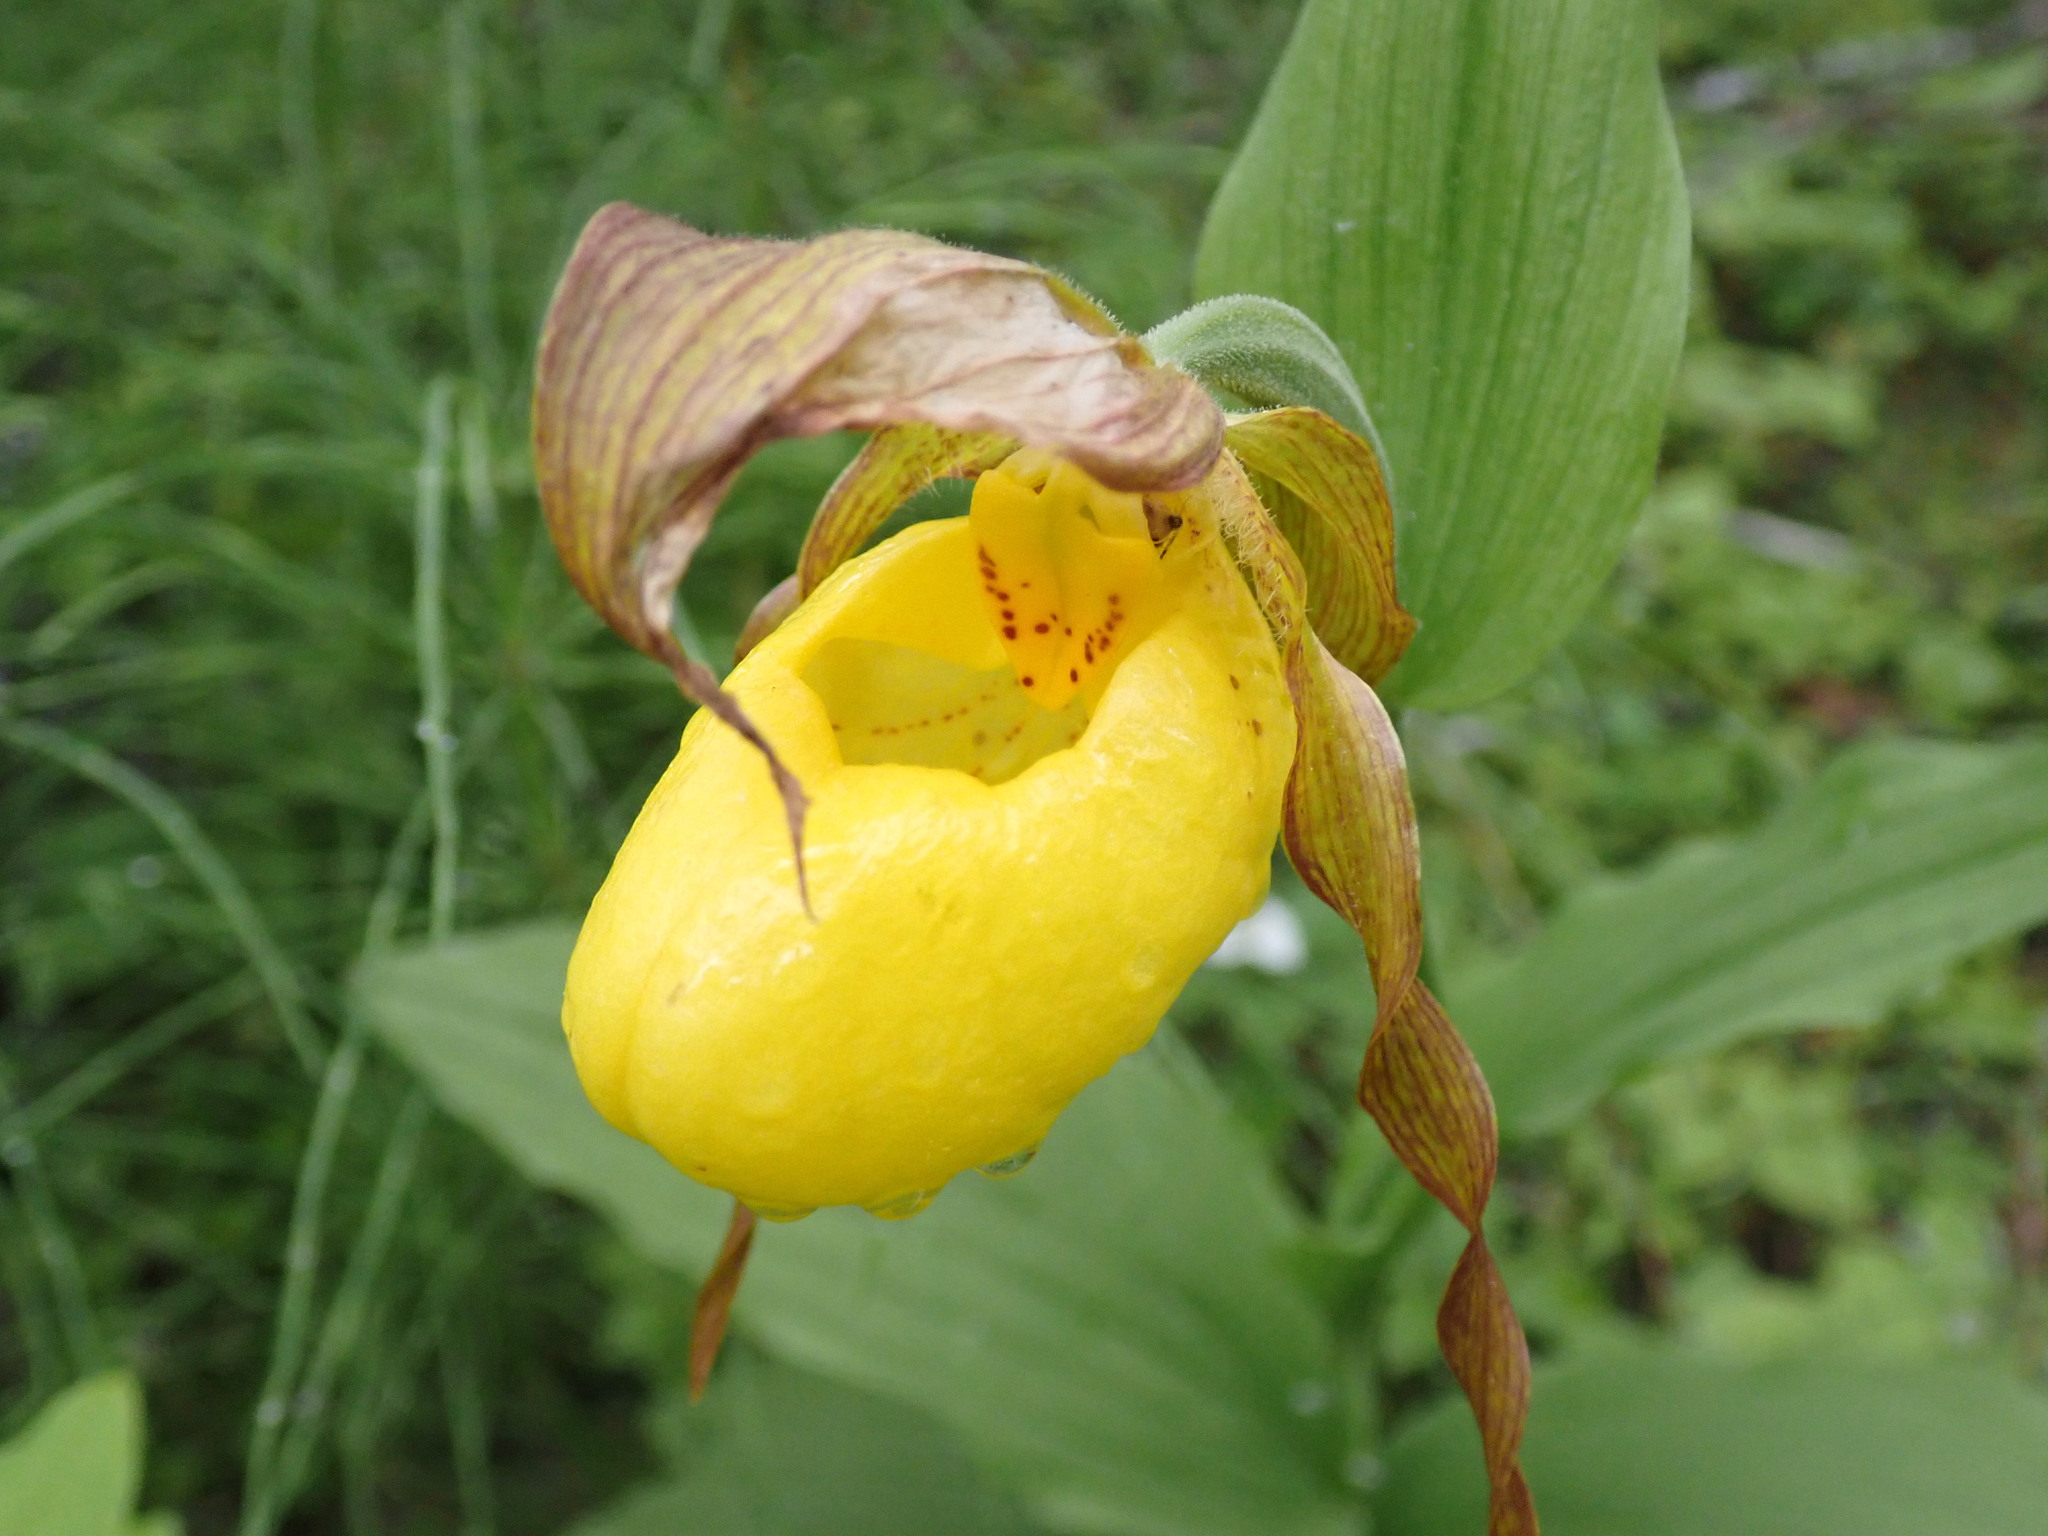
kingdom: Plantae
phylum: Tracheophyta
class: Liliopsida
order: Asparagales
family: Orchidaceae
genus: Cypripedium
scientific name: Cypripedium parviflorum
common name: American yellow lady's-slipper
